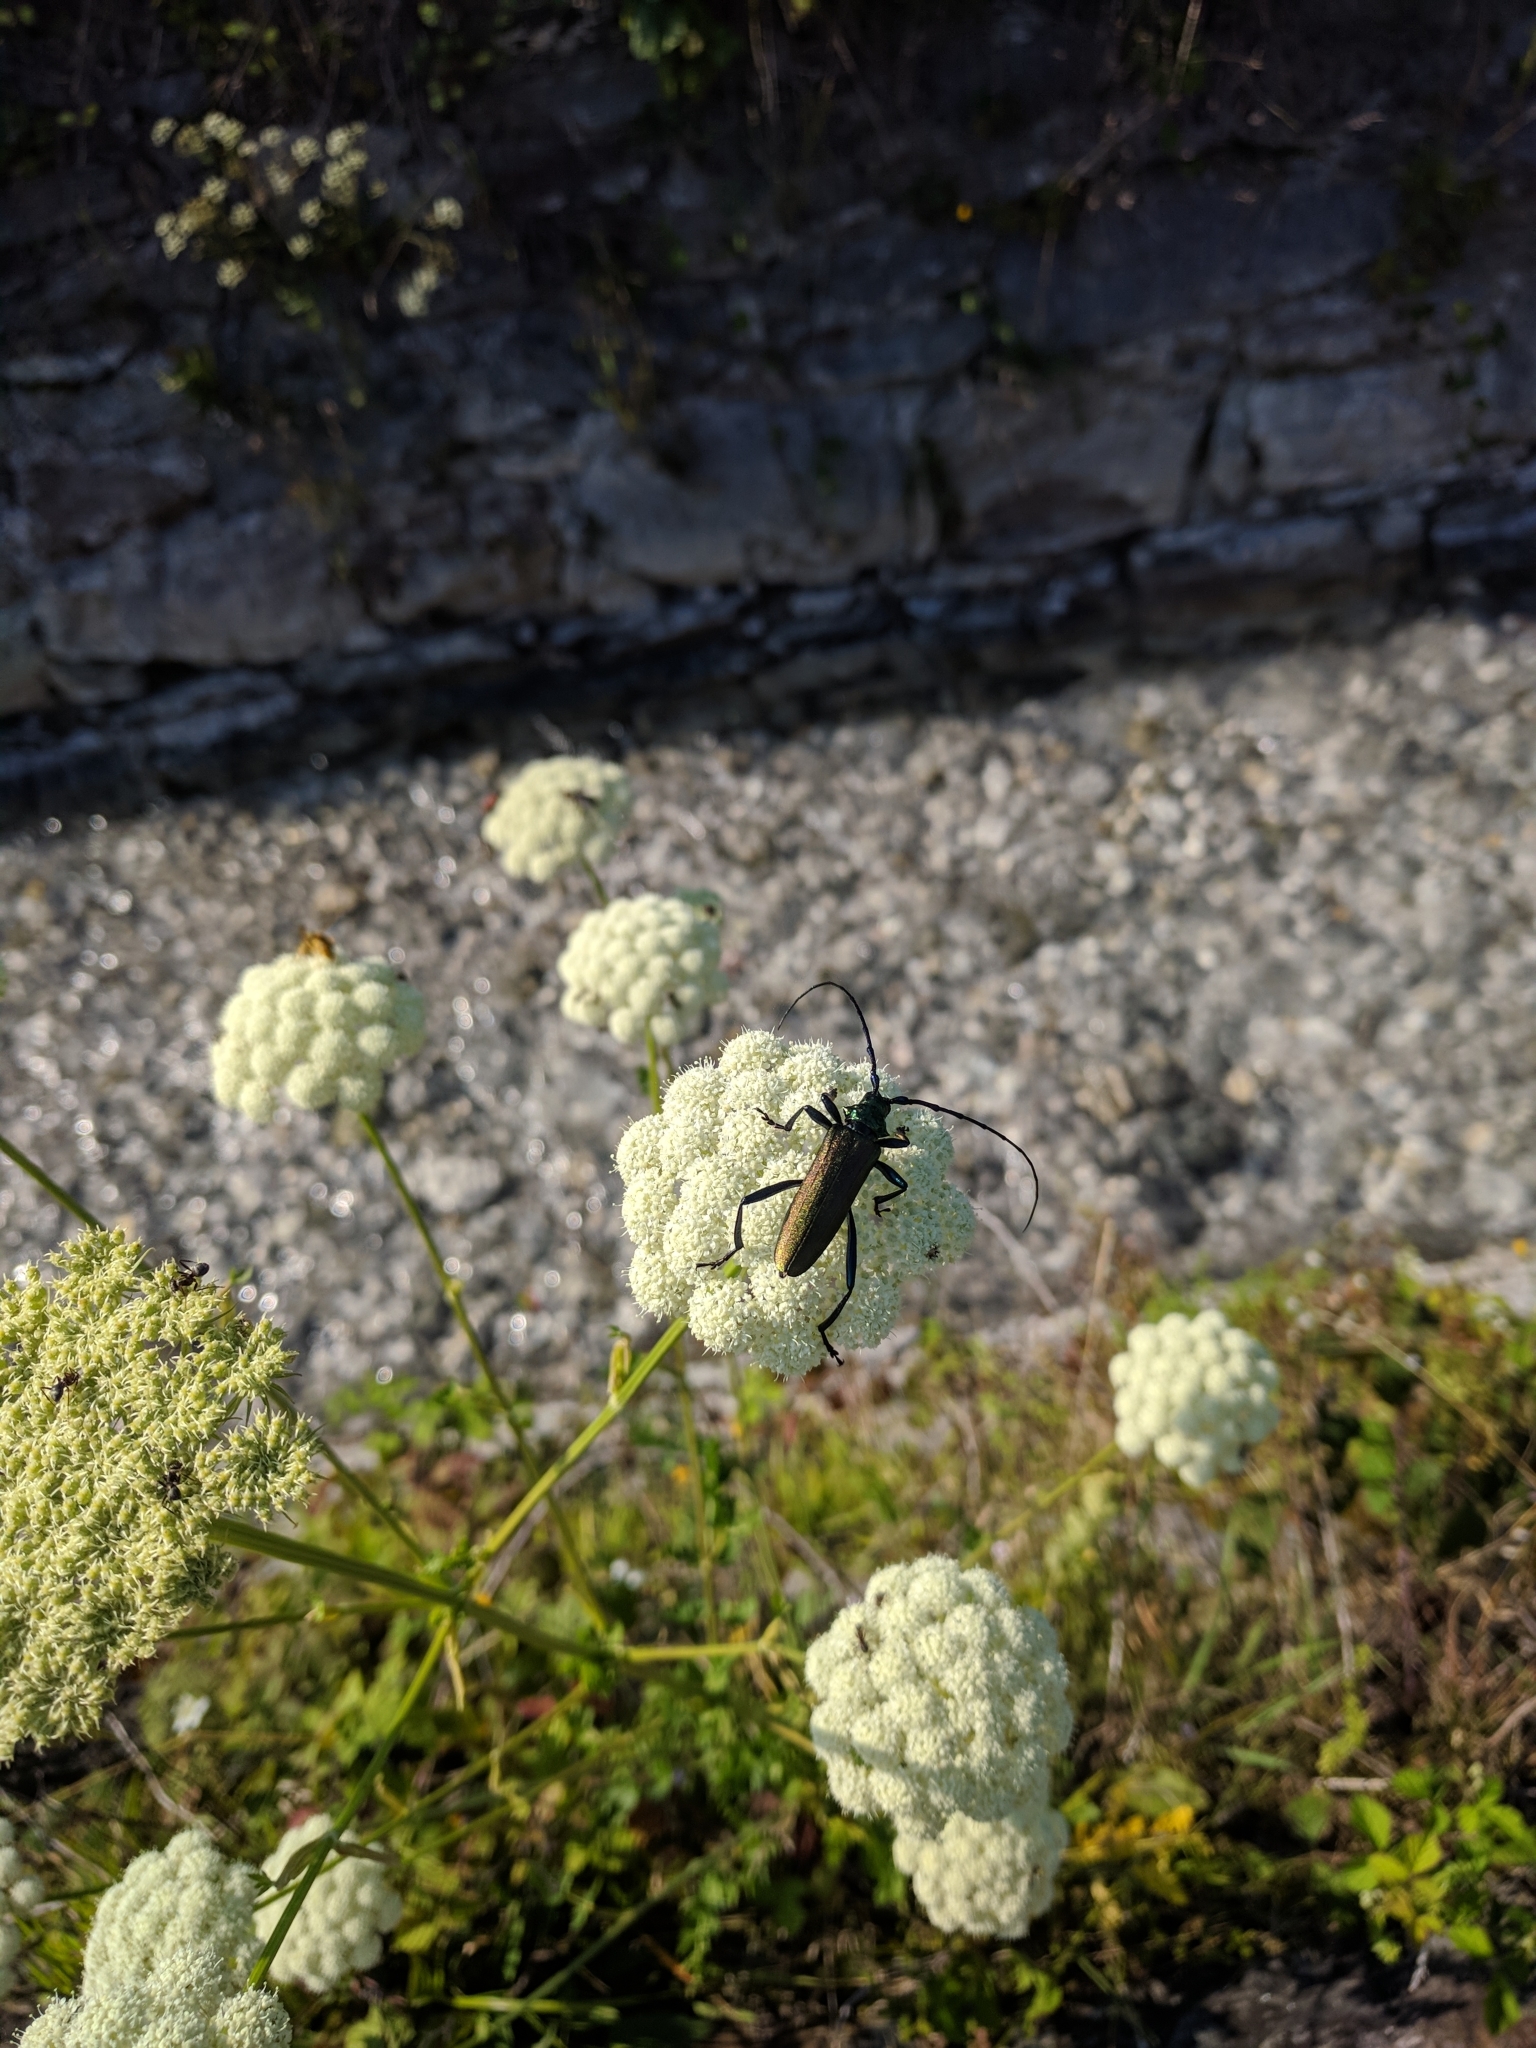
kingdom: Animalia
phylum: Arthropoda
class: Insecta
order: Coleoptera
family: Cerambycidae
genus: Aromia
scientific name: Aromia moschata
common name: Musk beetle
